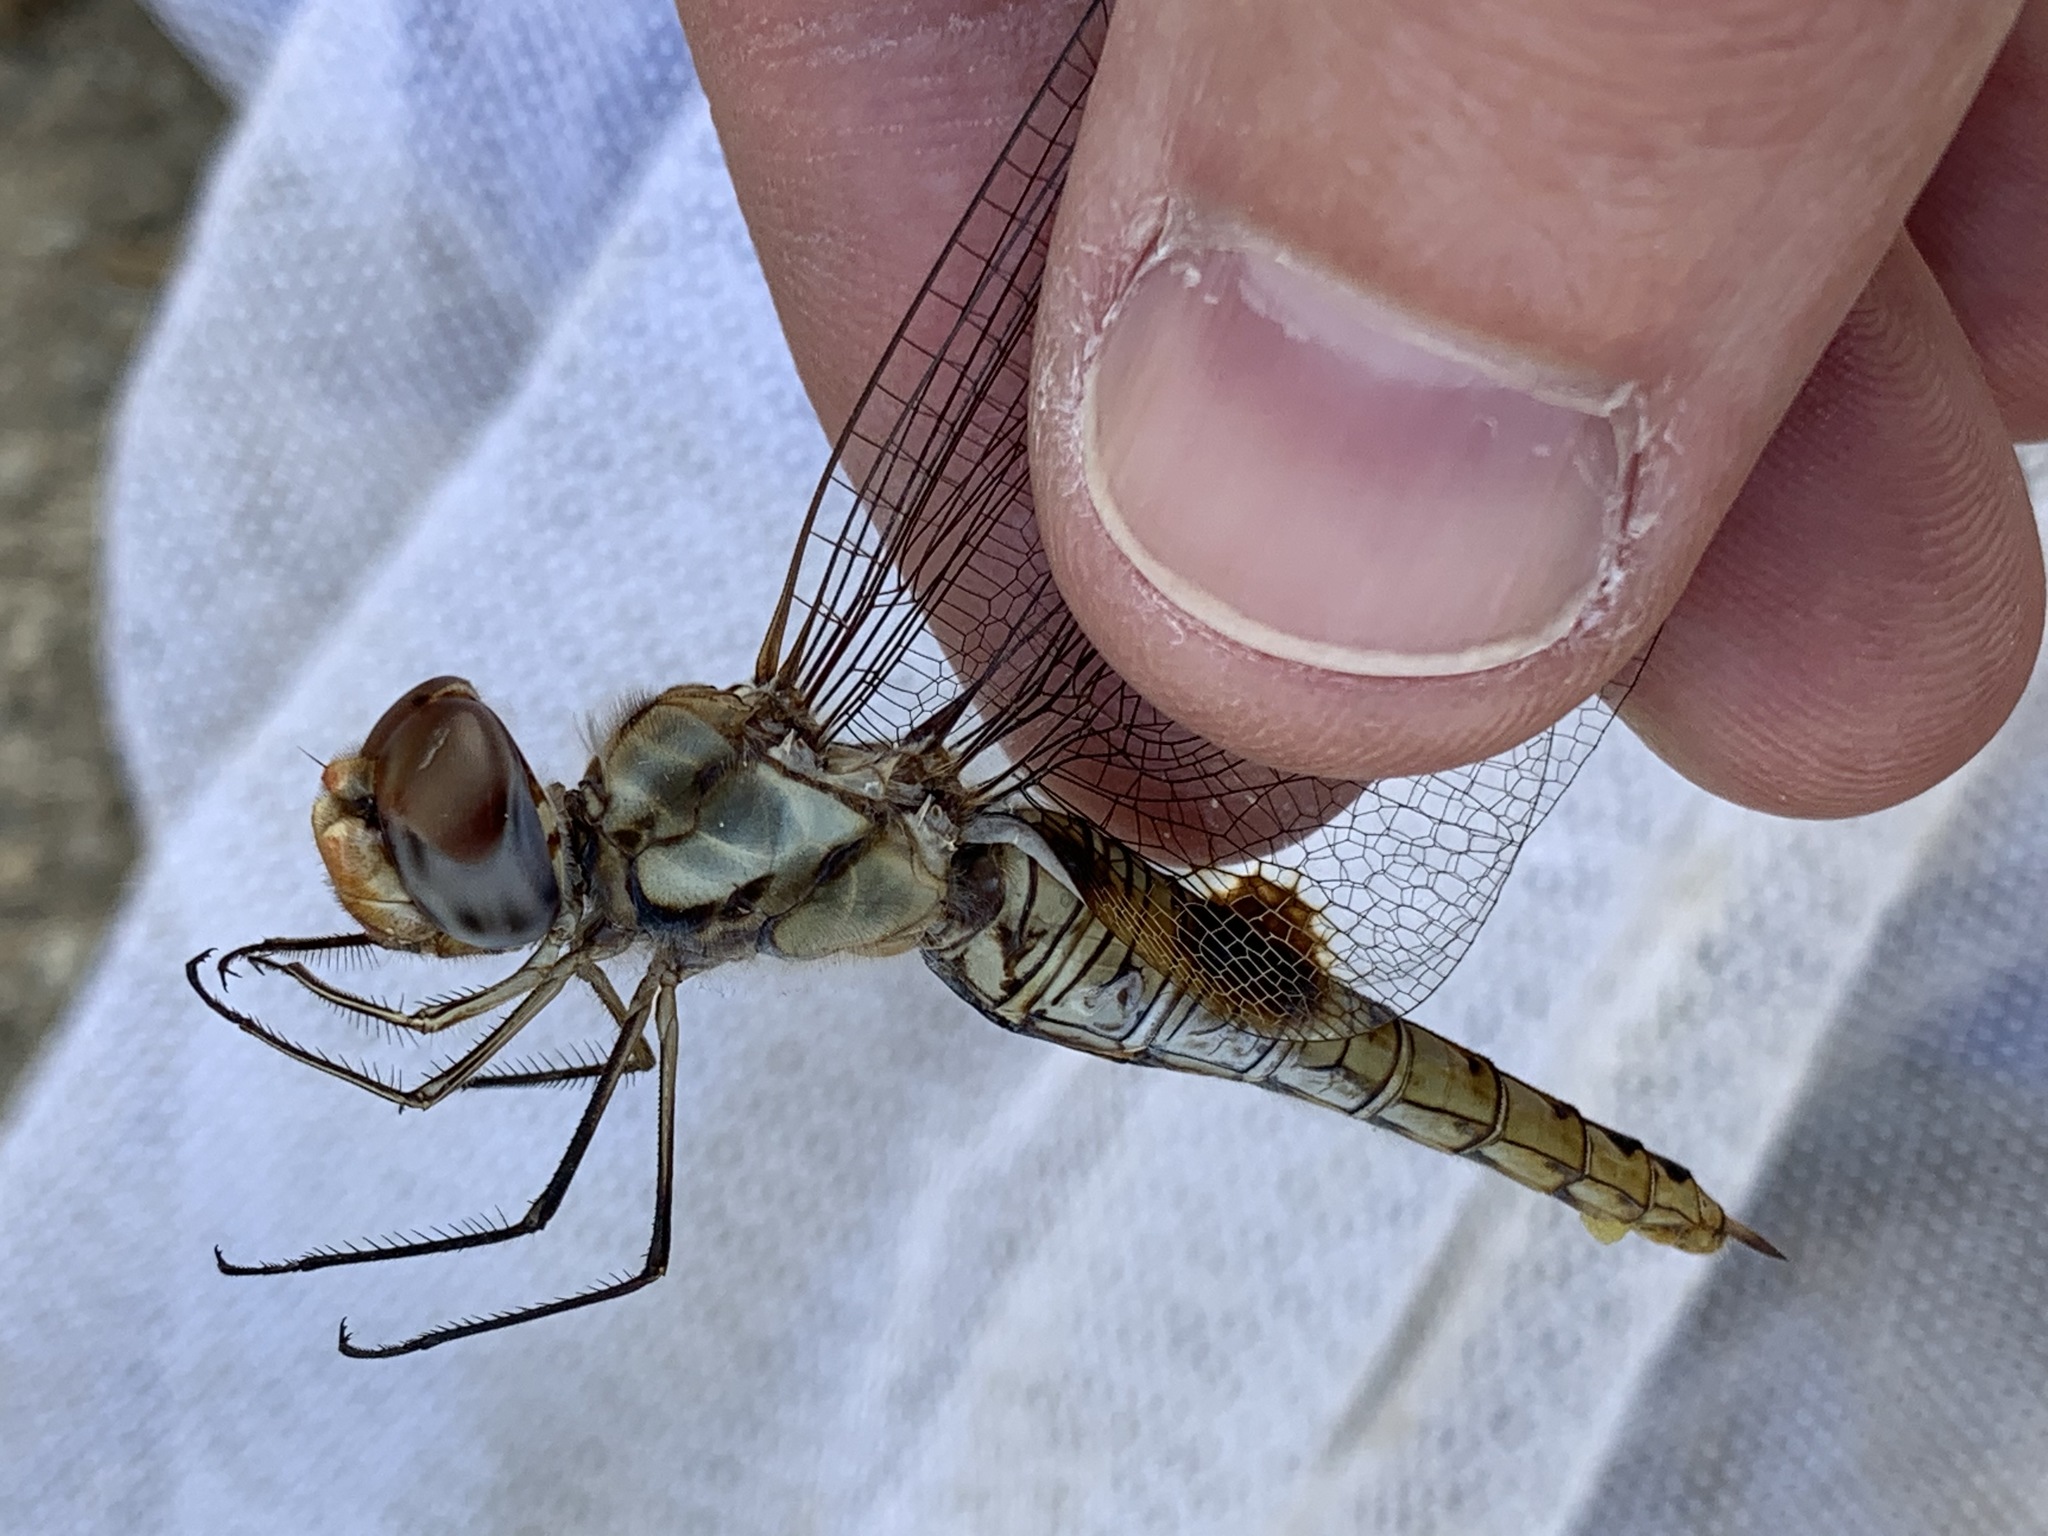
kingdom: Animalia
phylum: Arthropoda
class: Insecta
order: Odonata
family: Libellulidae
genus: Pantala
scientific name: Pantala hymenaea
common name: Spot-winged glider
